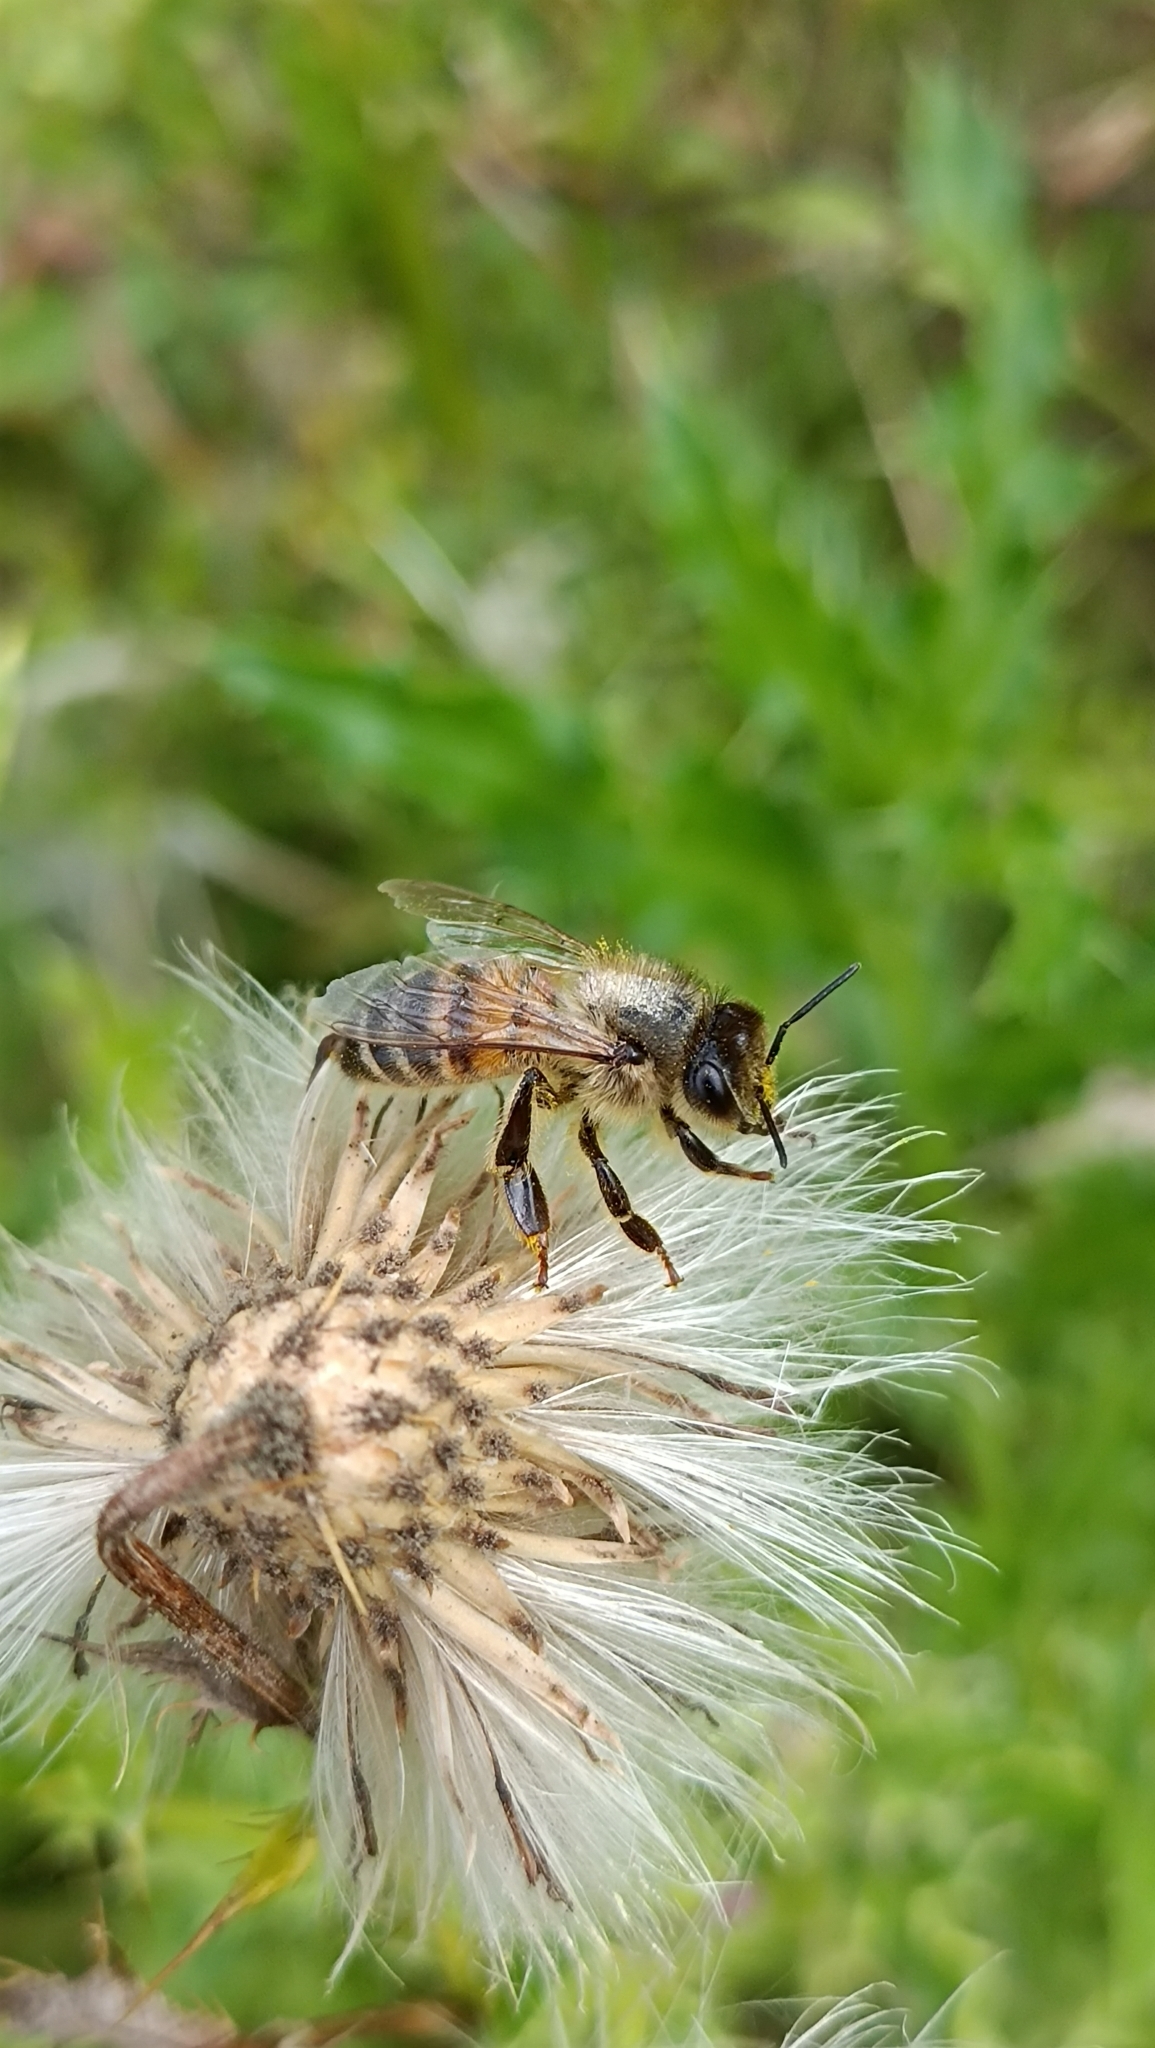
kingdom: Animalia
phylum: Arthropoda
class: Insecta
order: Hymenoptera
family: Apidae
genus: Apis
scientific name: Apis mellifera
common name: Honey bee
